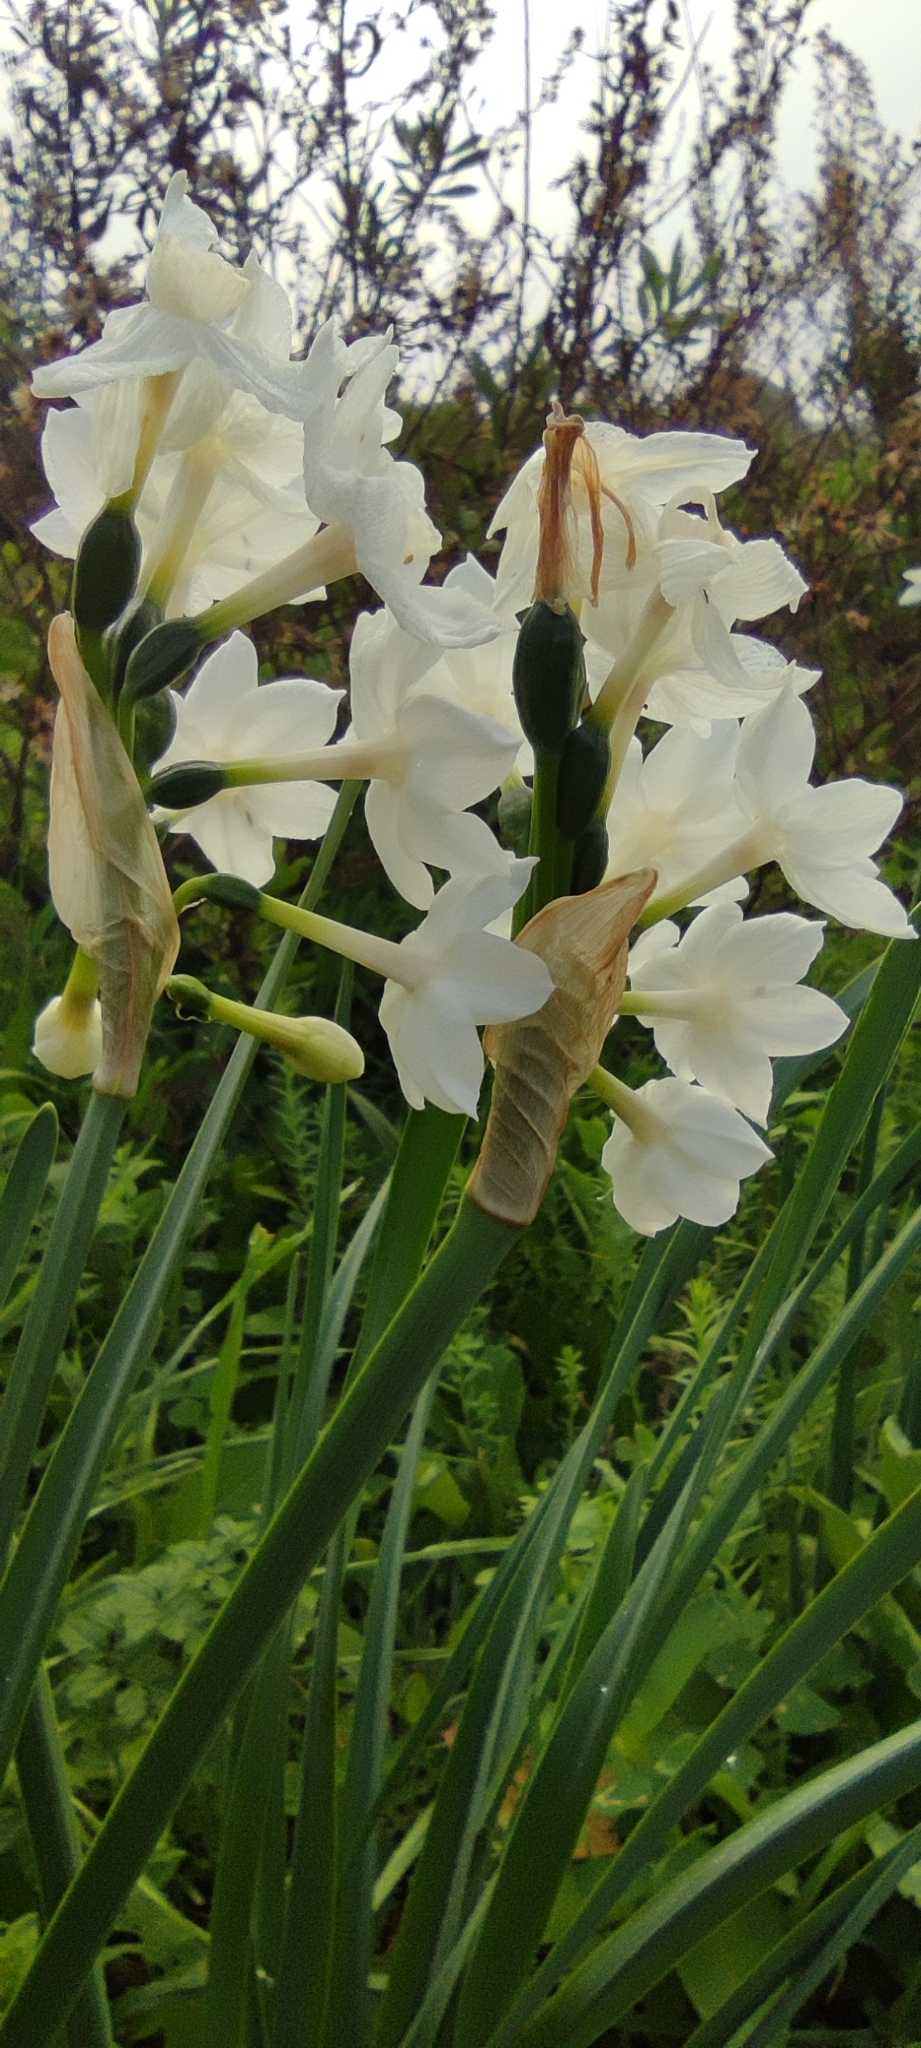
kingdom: Plantae
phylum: Tracheophyta
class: Liliopsida
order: Asparagales
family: Amaryllidaceae
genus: Narcissus
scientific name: Narcissus papyraceus
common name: Paper-white daffodil
